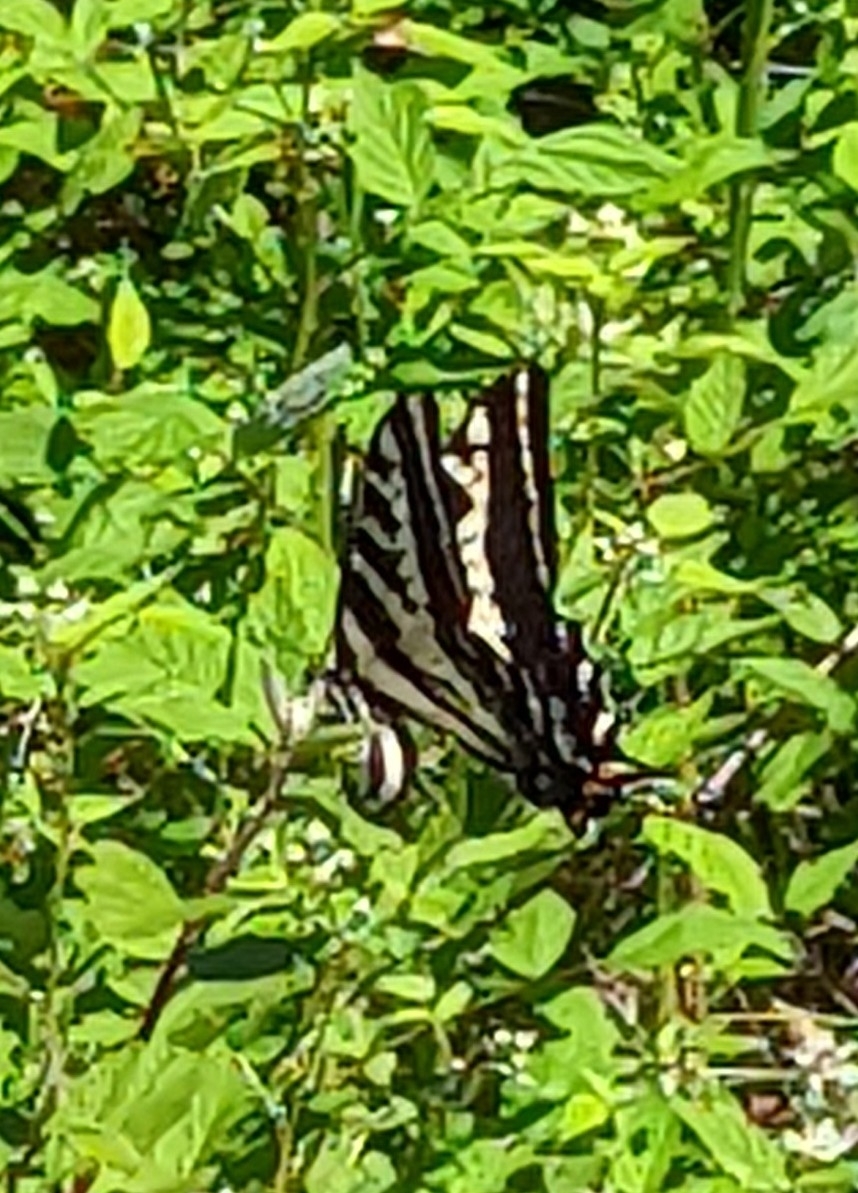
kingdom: Animalia
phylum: Arthropoda
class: Insecta
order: Lepidoptera
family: Papilionidae
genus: Papilio
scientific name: Papilio eurymedon
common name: Pale tiger swallowtail
